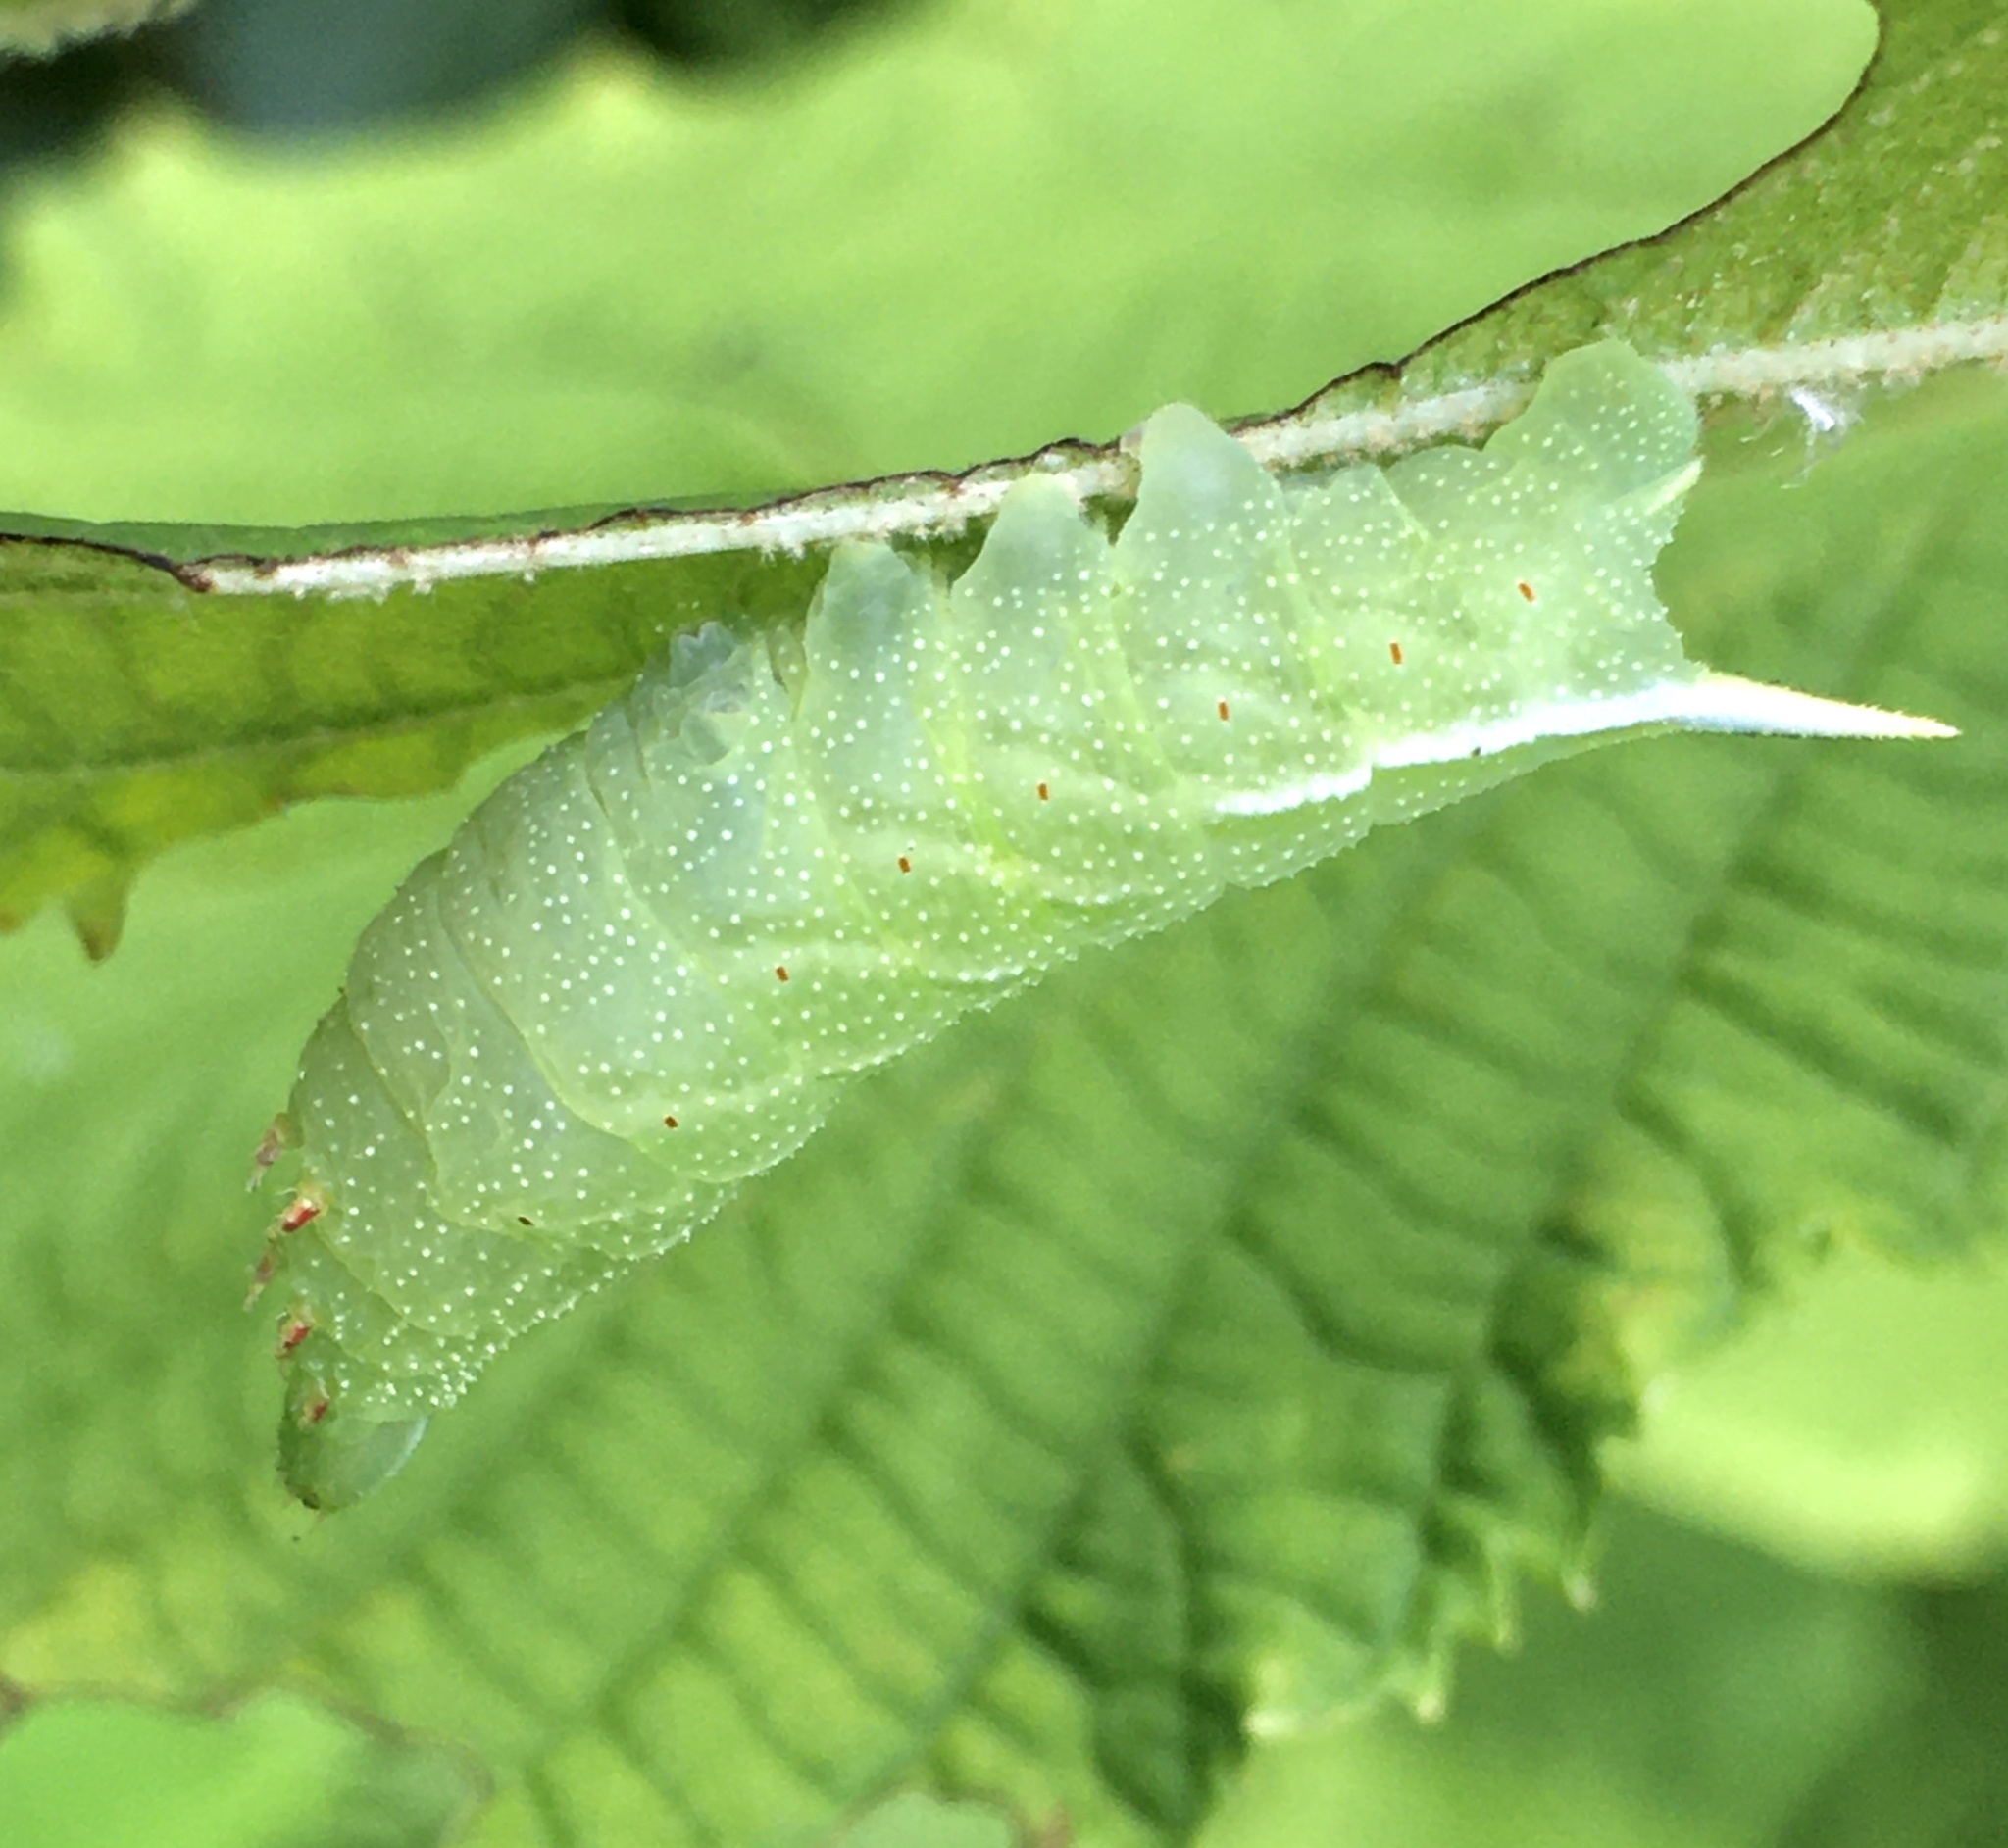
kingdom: Animalia
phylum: Arthropoda
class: Insecta
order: Lepidoptera
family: Sphingidae
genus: Darapsa
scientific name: Darapsa choerilus
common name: Azalea sphinx
